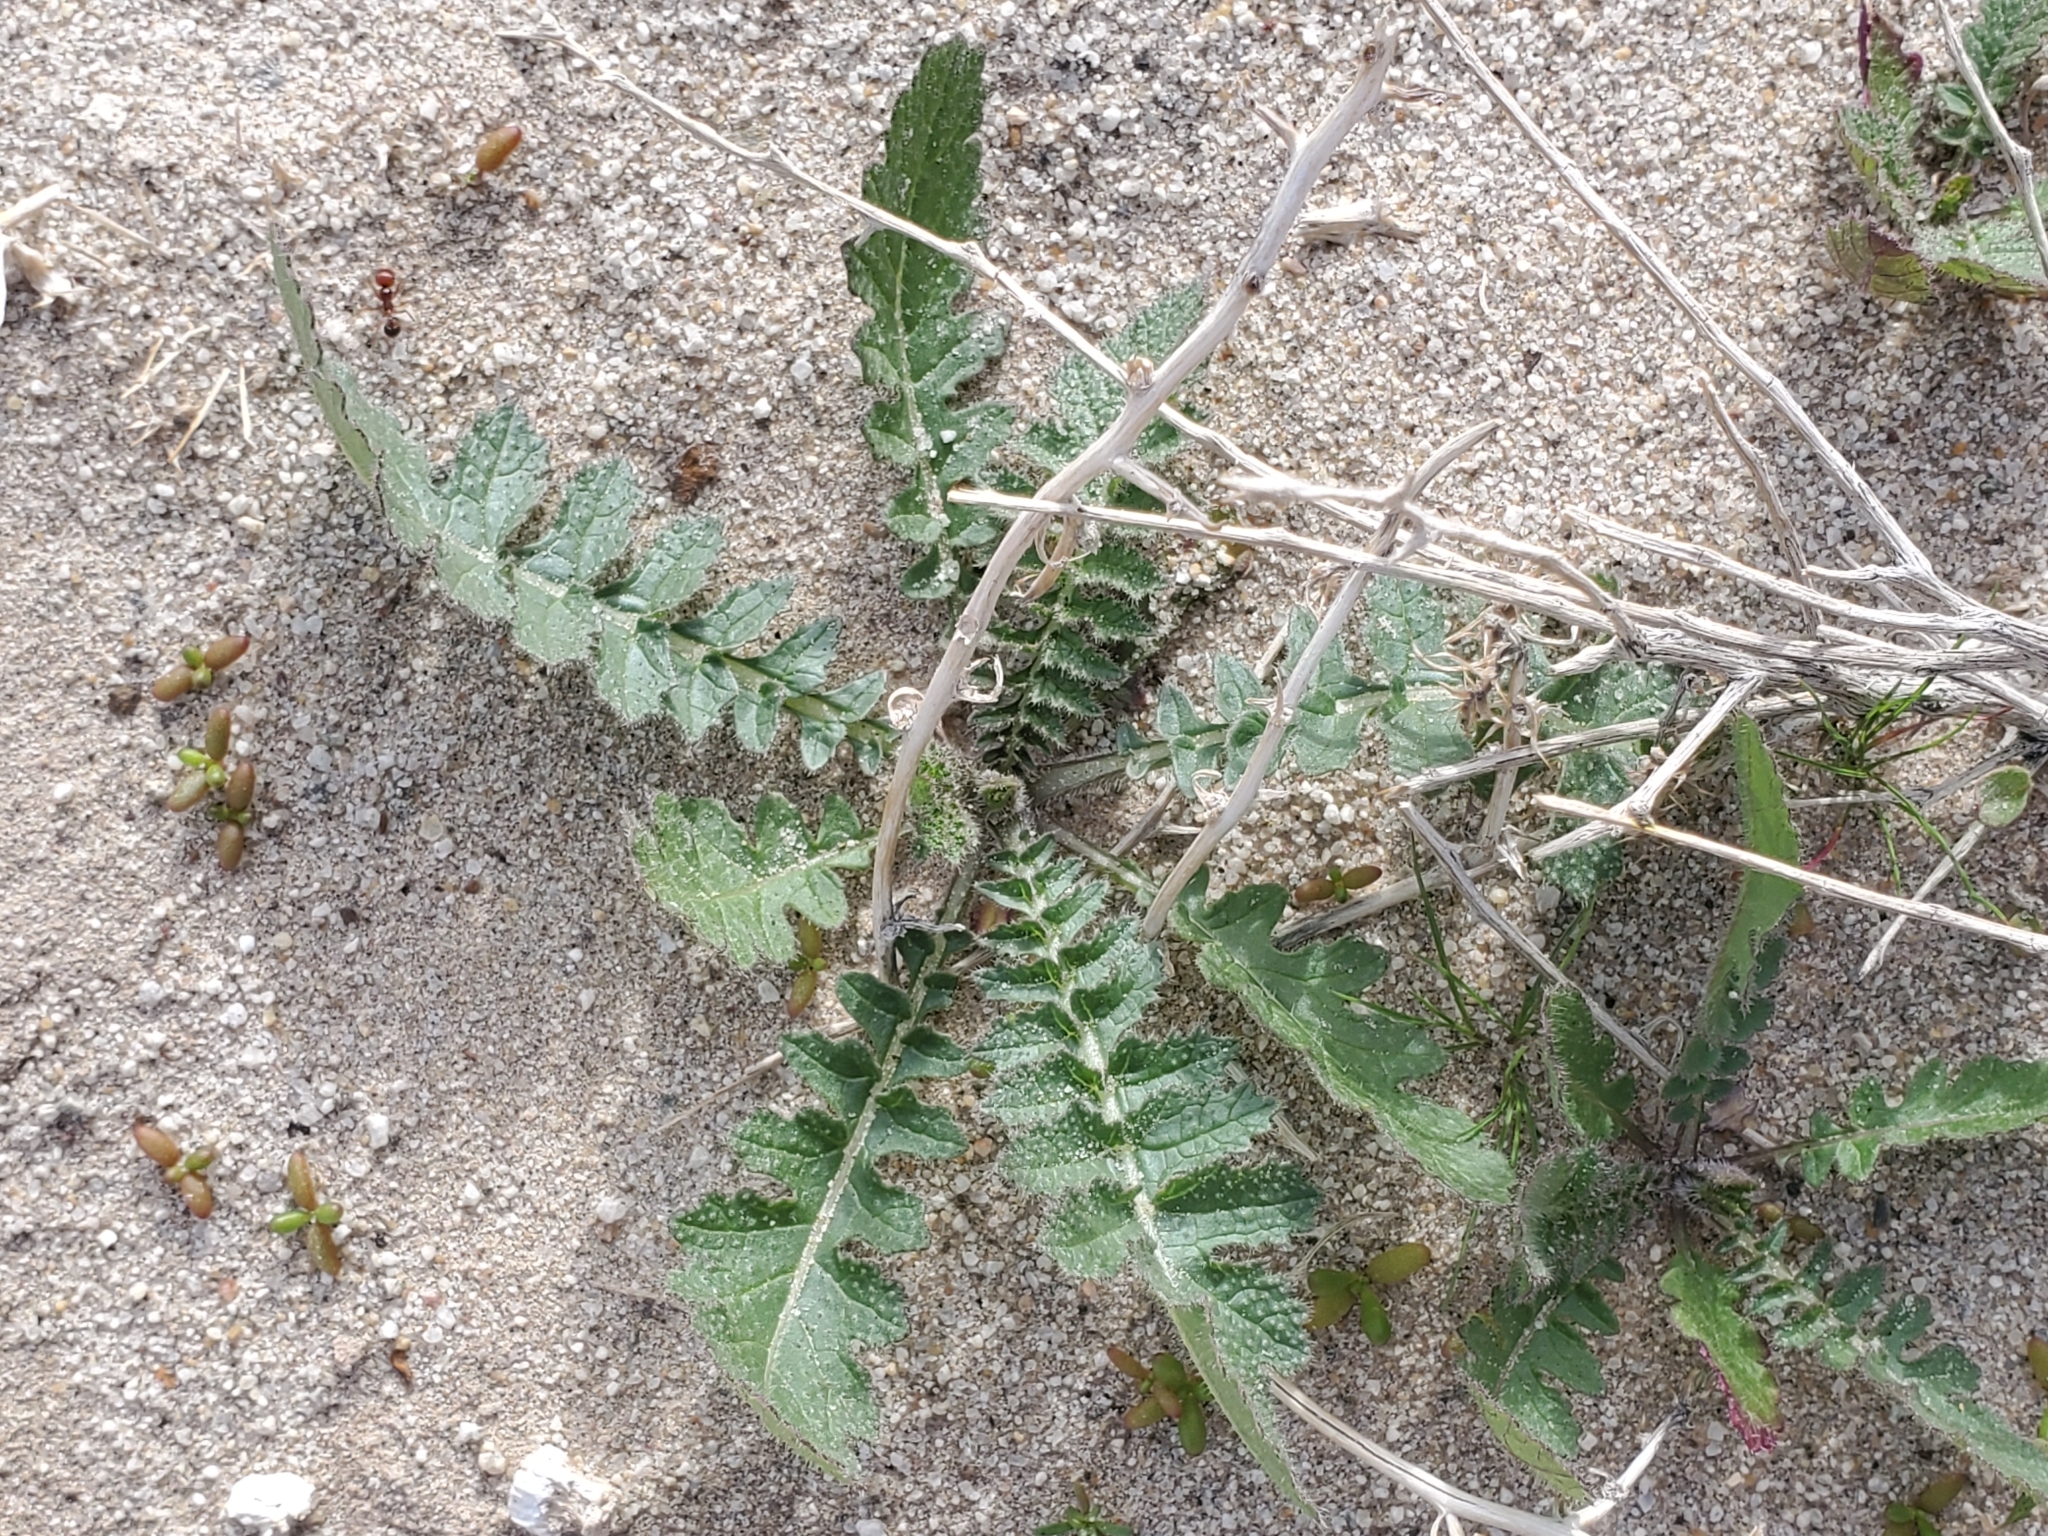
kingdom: Plantae
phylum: Tracheophyta
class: Magnoliopsida
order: Brassicales
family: Brassicaceae
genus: Brassica
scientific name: Brassica tournefortii
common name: Pale cabbage
